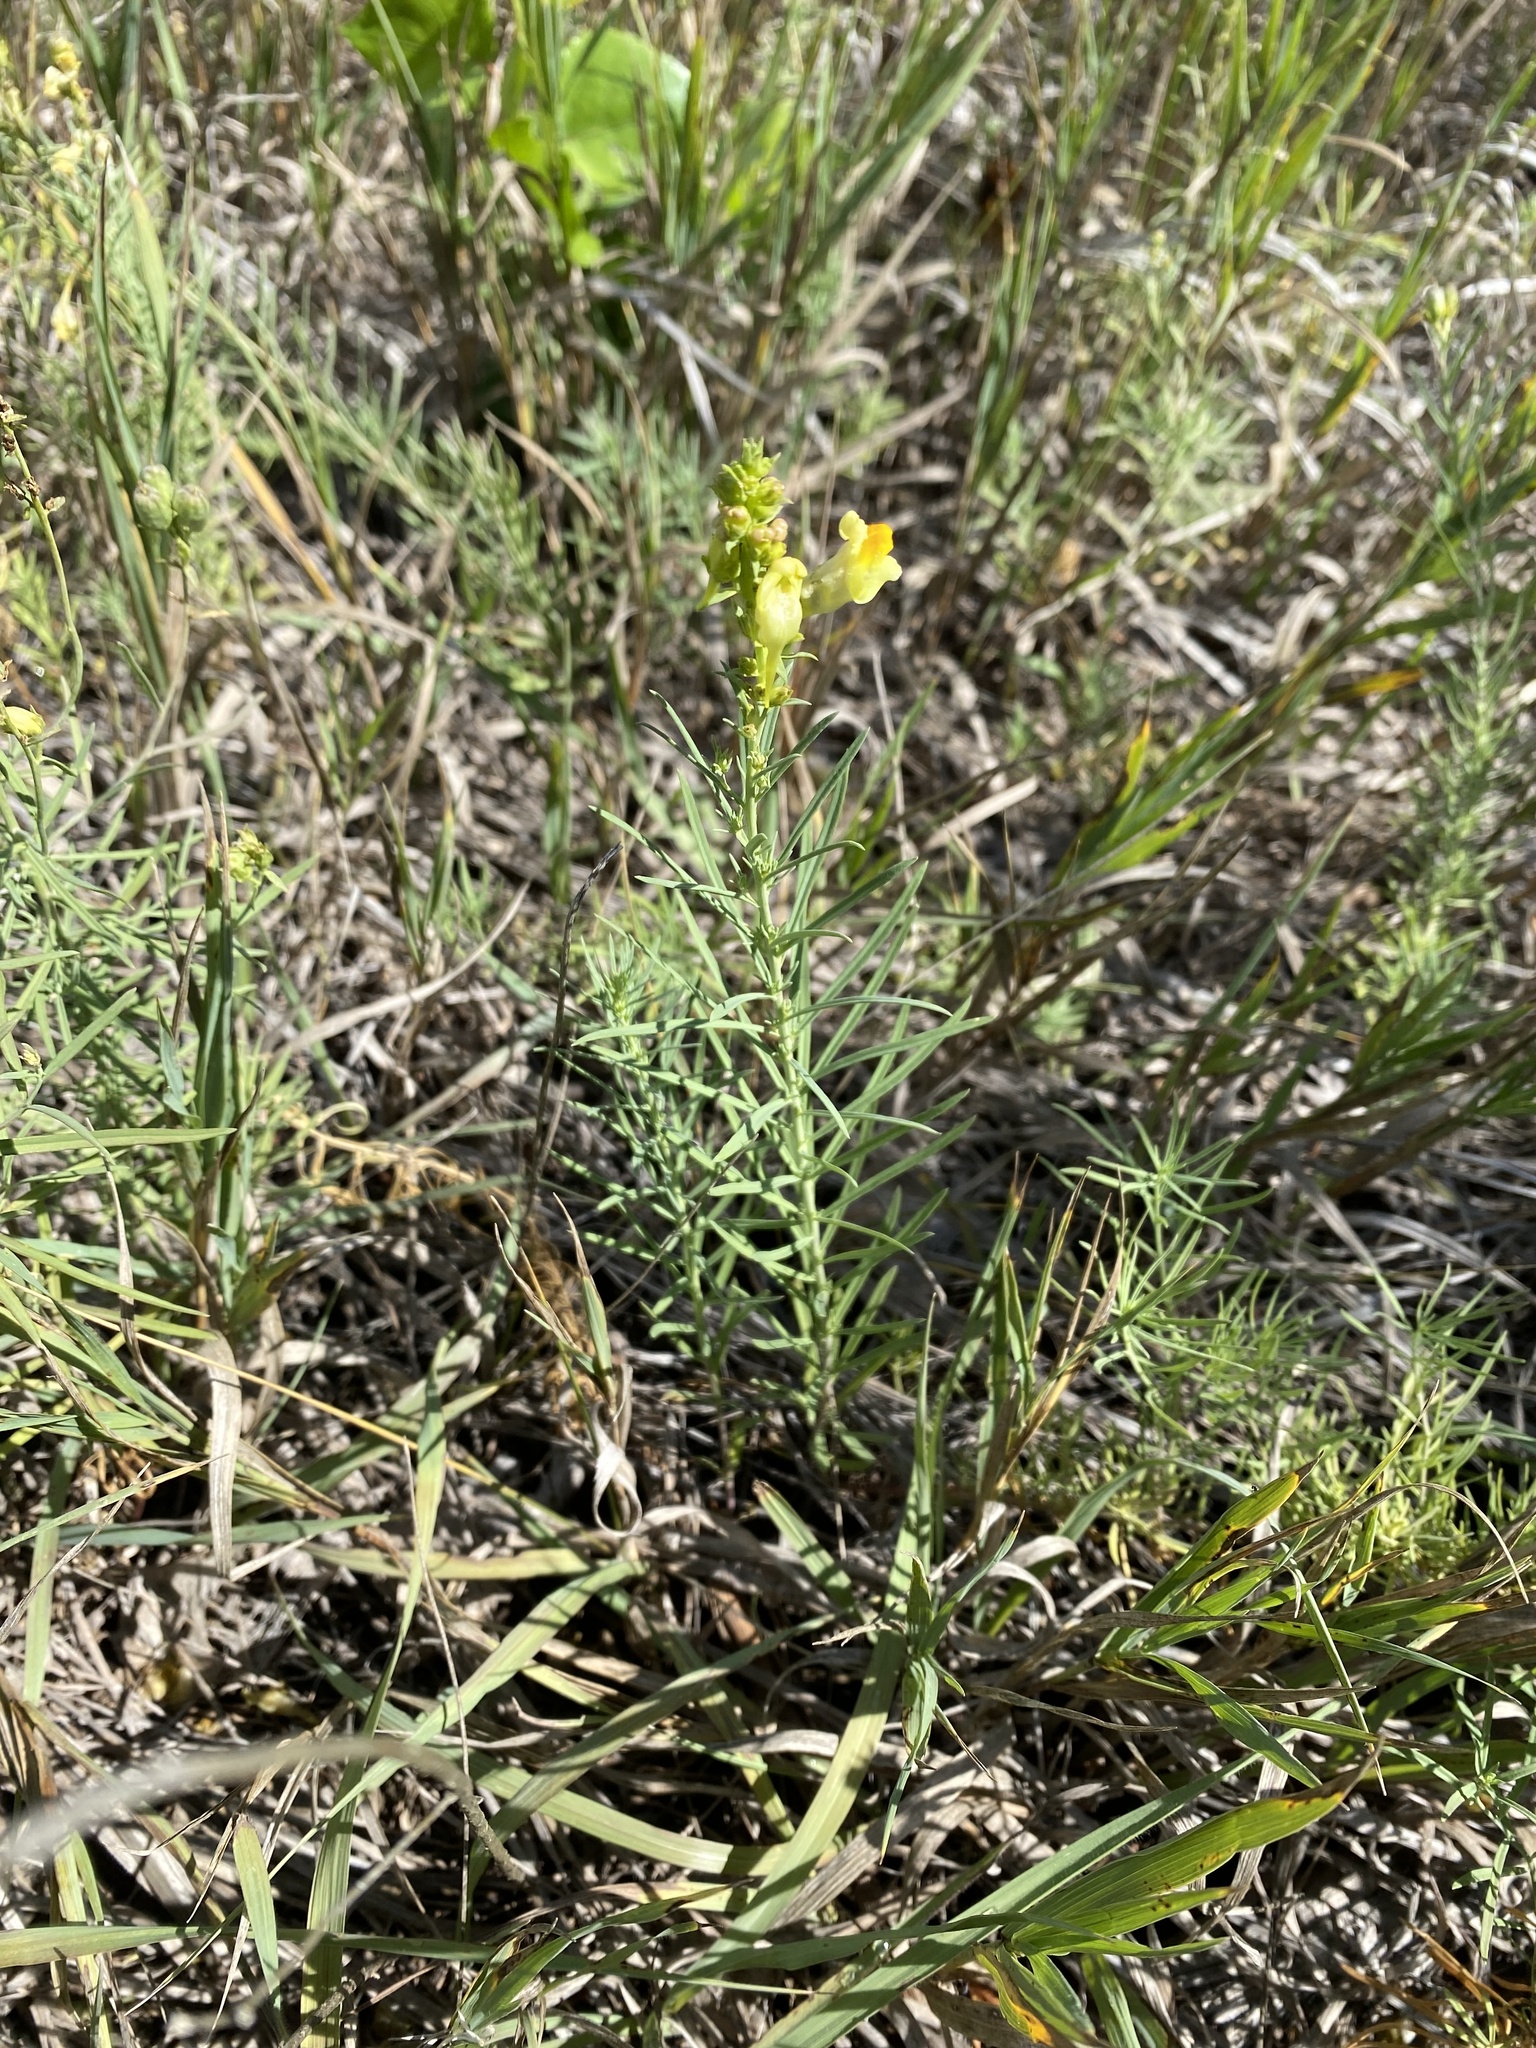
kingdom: Plantae
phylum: Tracheophyta
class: Magnoliopsida
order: Lamiales
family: Plantaginaceae
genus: Linaria
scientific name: Linaria vulgaris
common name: Butter and eggs
